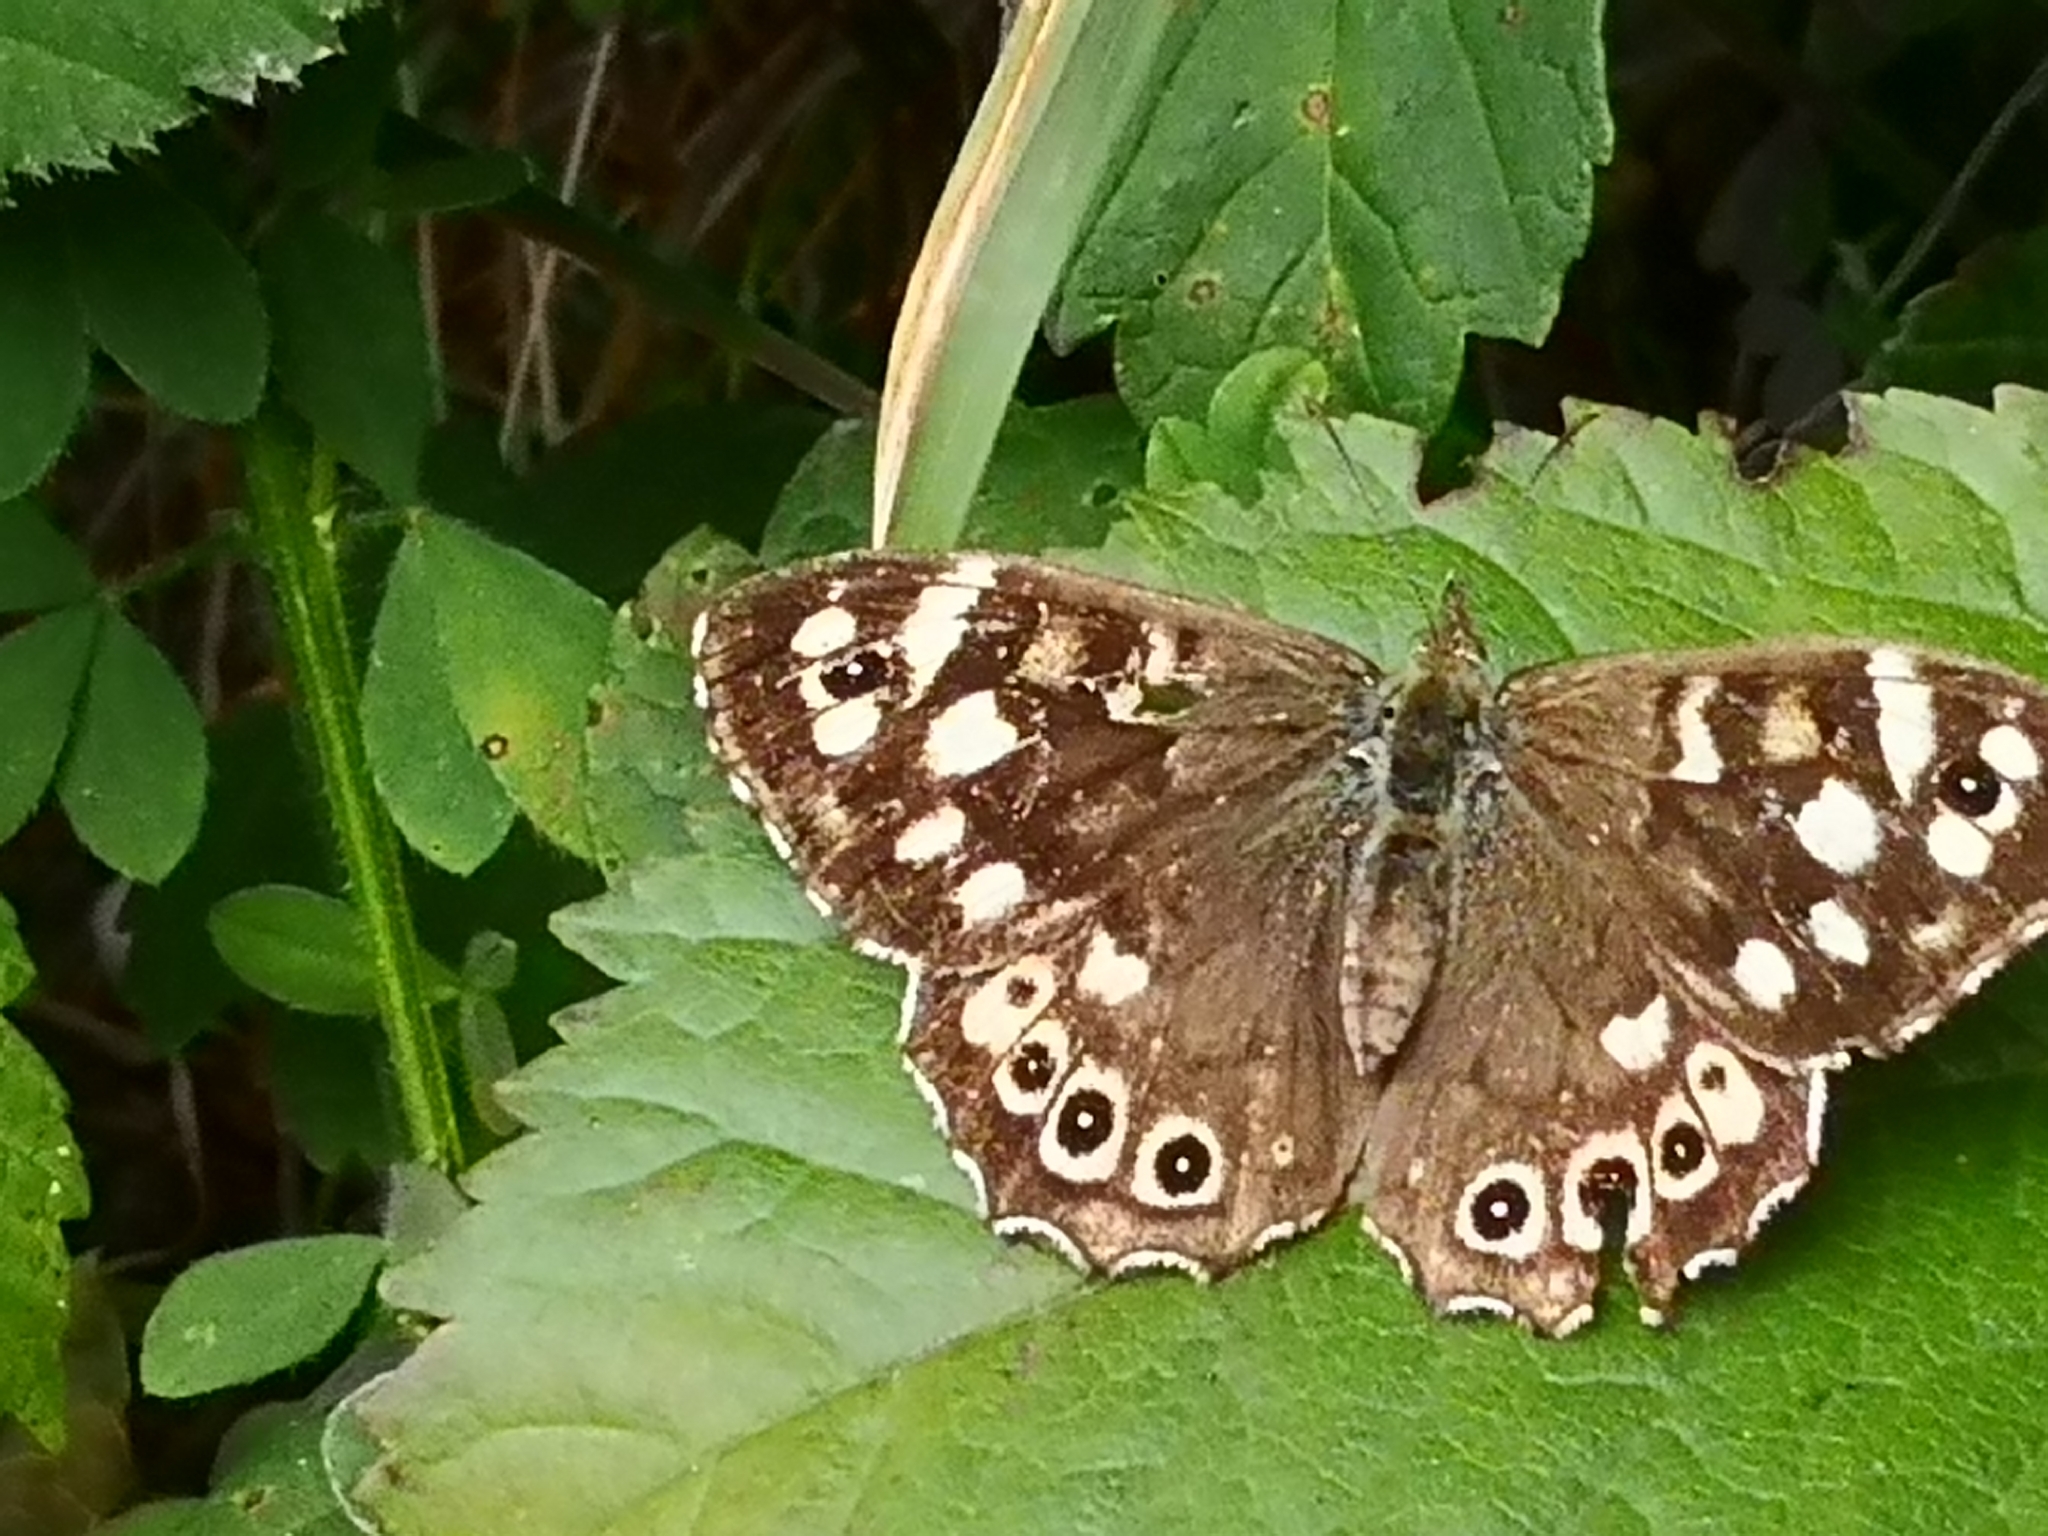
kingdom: Animalia
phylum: Arthropoda
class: Insecta
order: Lepidoptera
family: Nymphalidae
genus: Pararge
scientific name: Pararge aegeria
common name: Speckled wood
